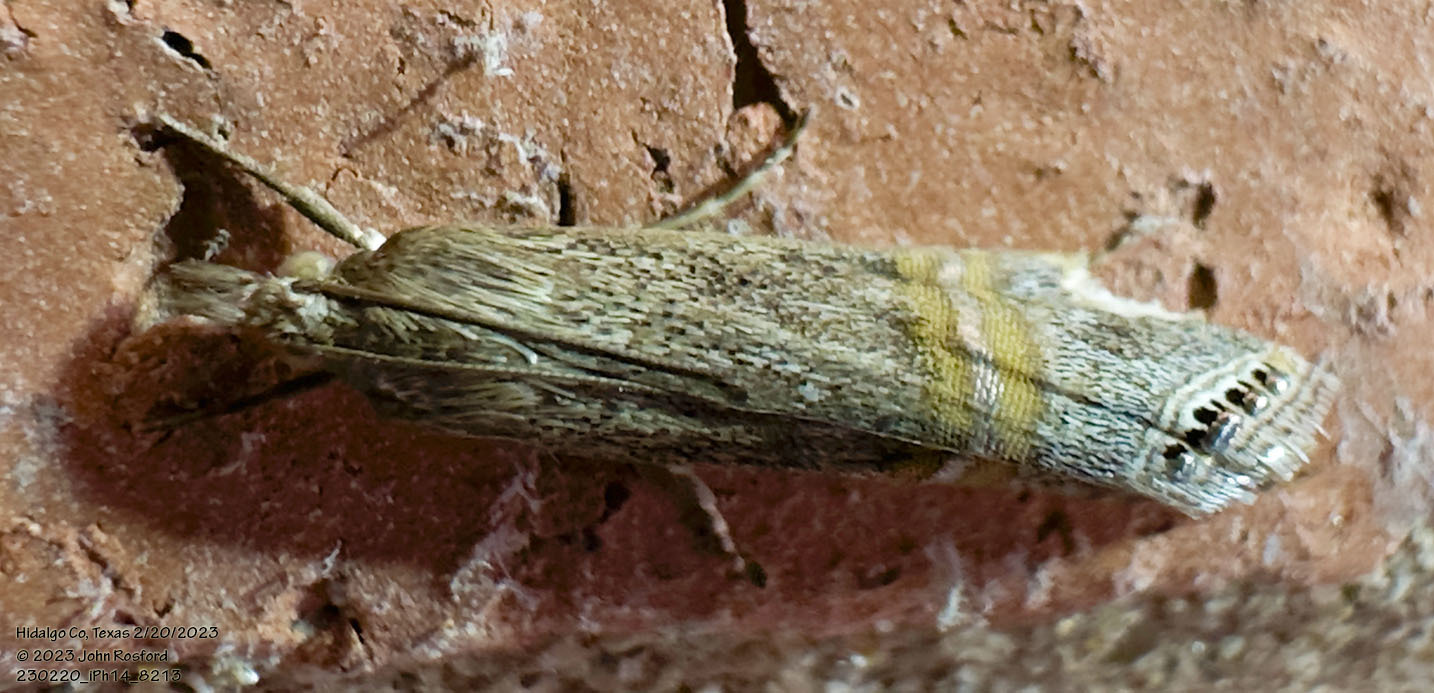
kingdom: Animalia
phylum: Arthropoda
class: Insecta
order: Lepidoptera
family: Crambidae
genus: Euchromius
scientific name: Euchromius ocellea
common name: Necklace veneer moth
